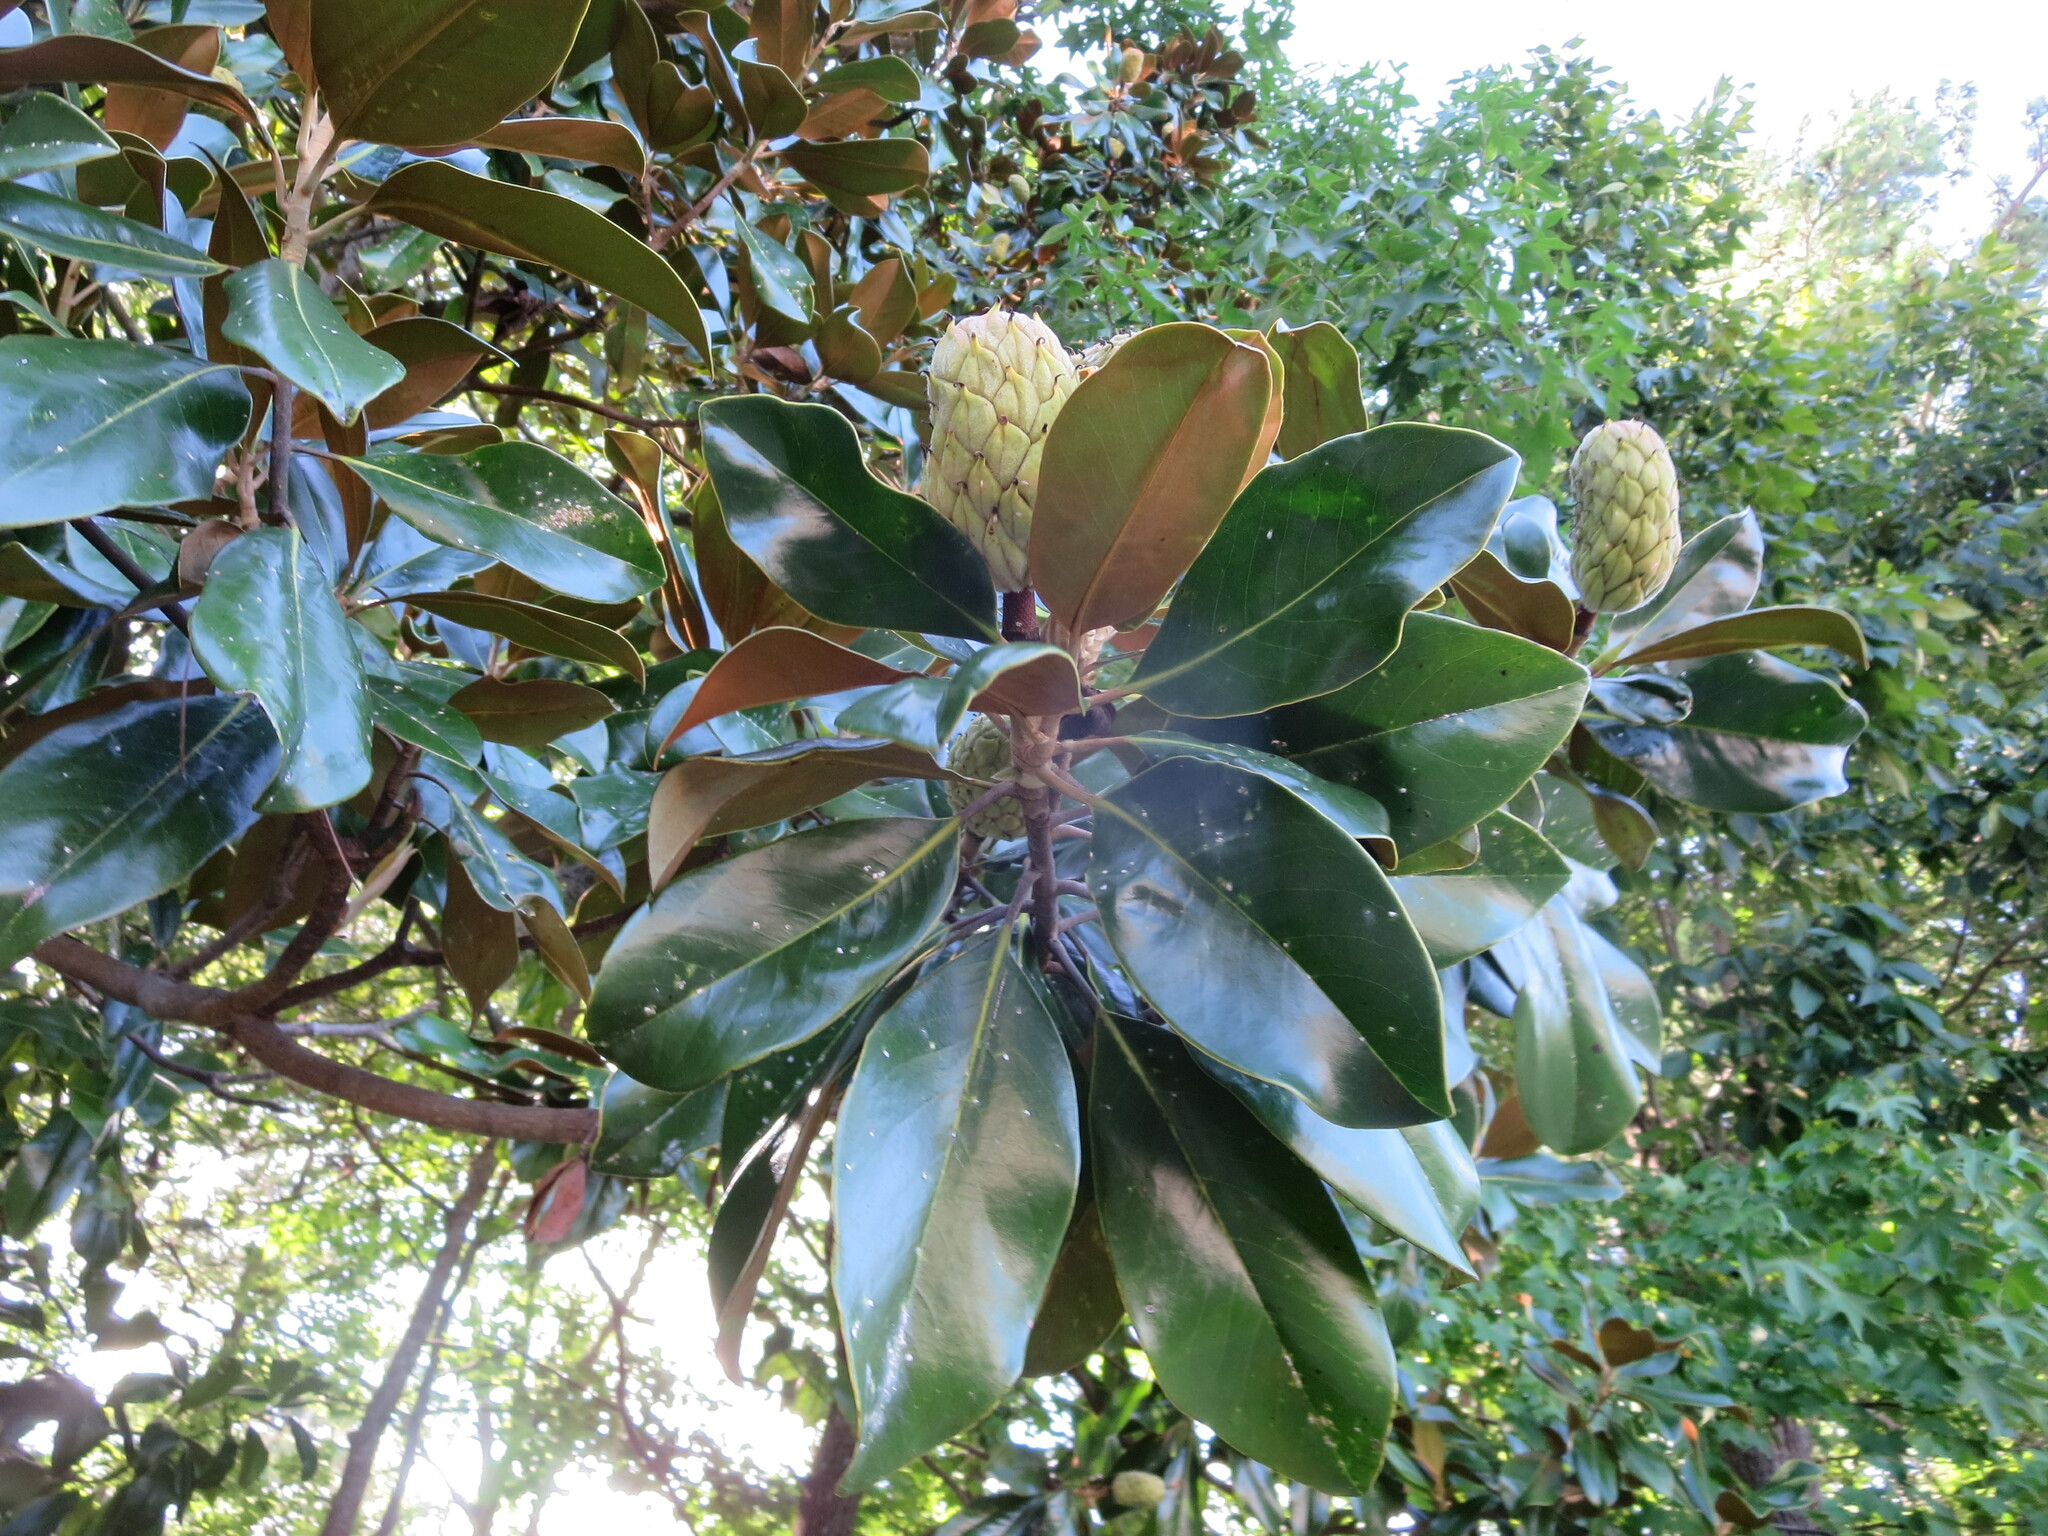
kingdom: Plantae
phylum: Tracheophyta
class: Magnoliopsida
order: Magnoliales
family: Magnoliaceae
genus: Magnolia
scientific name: Magnolia grandiflora
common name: Southern magnolia
